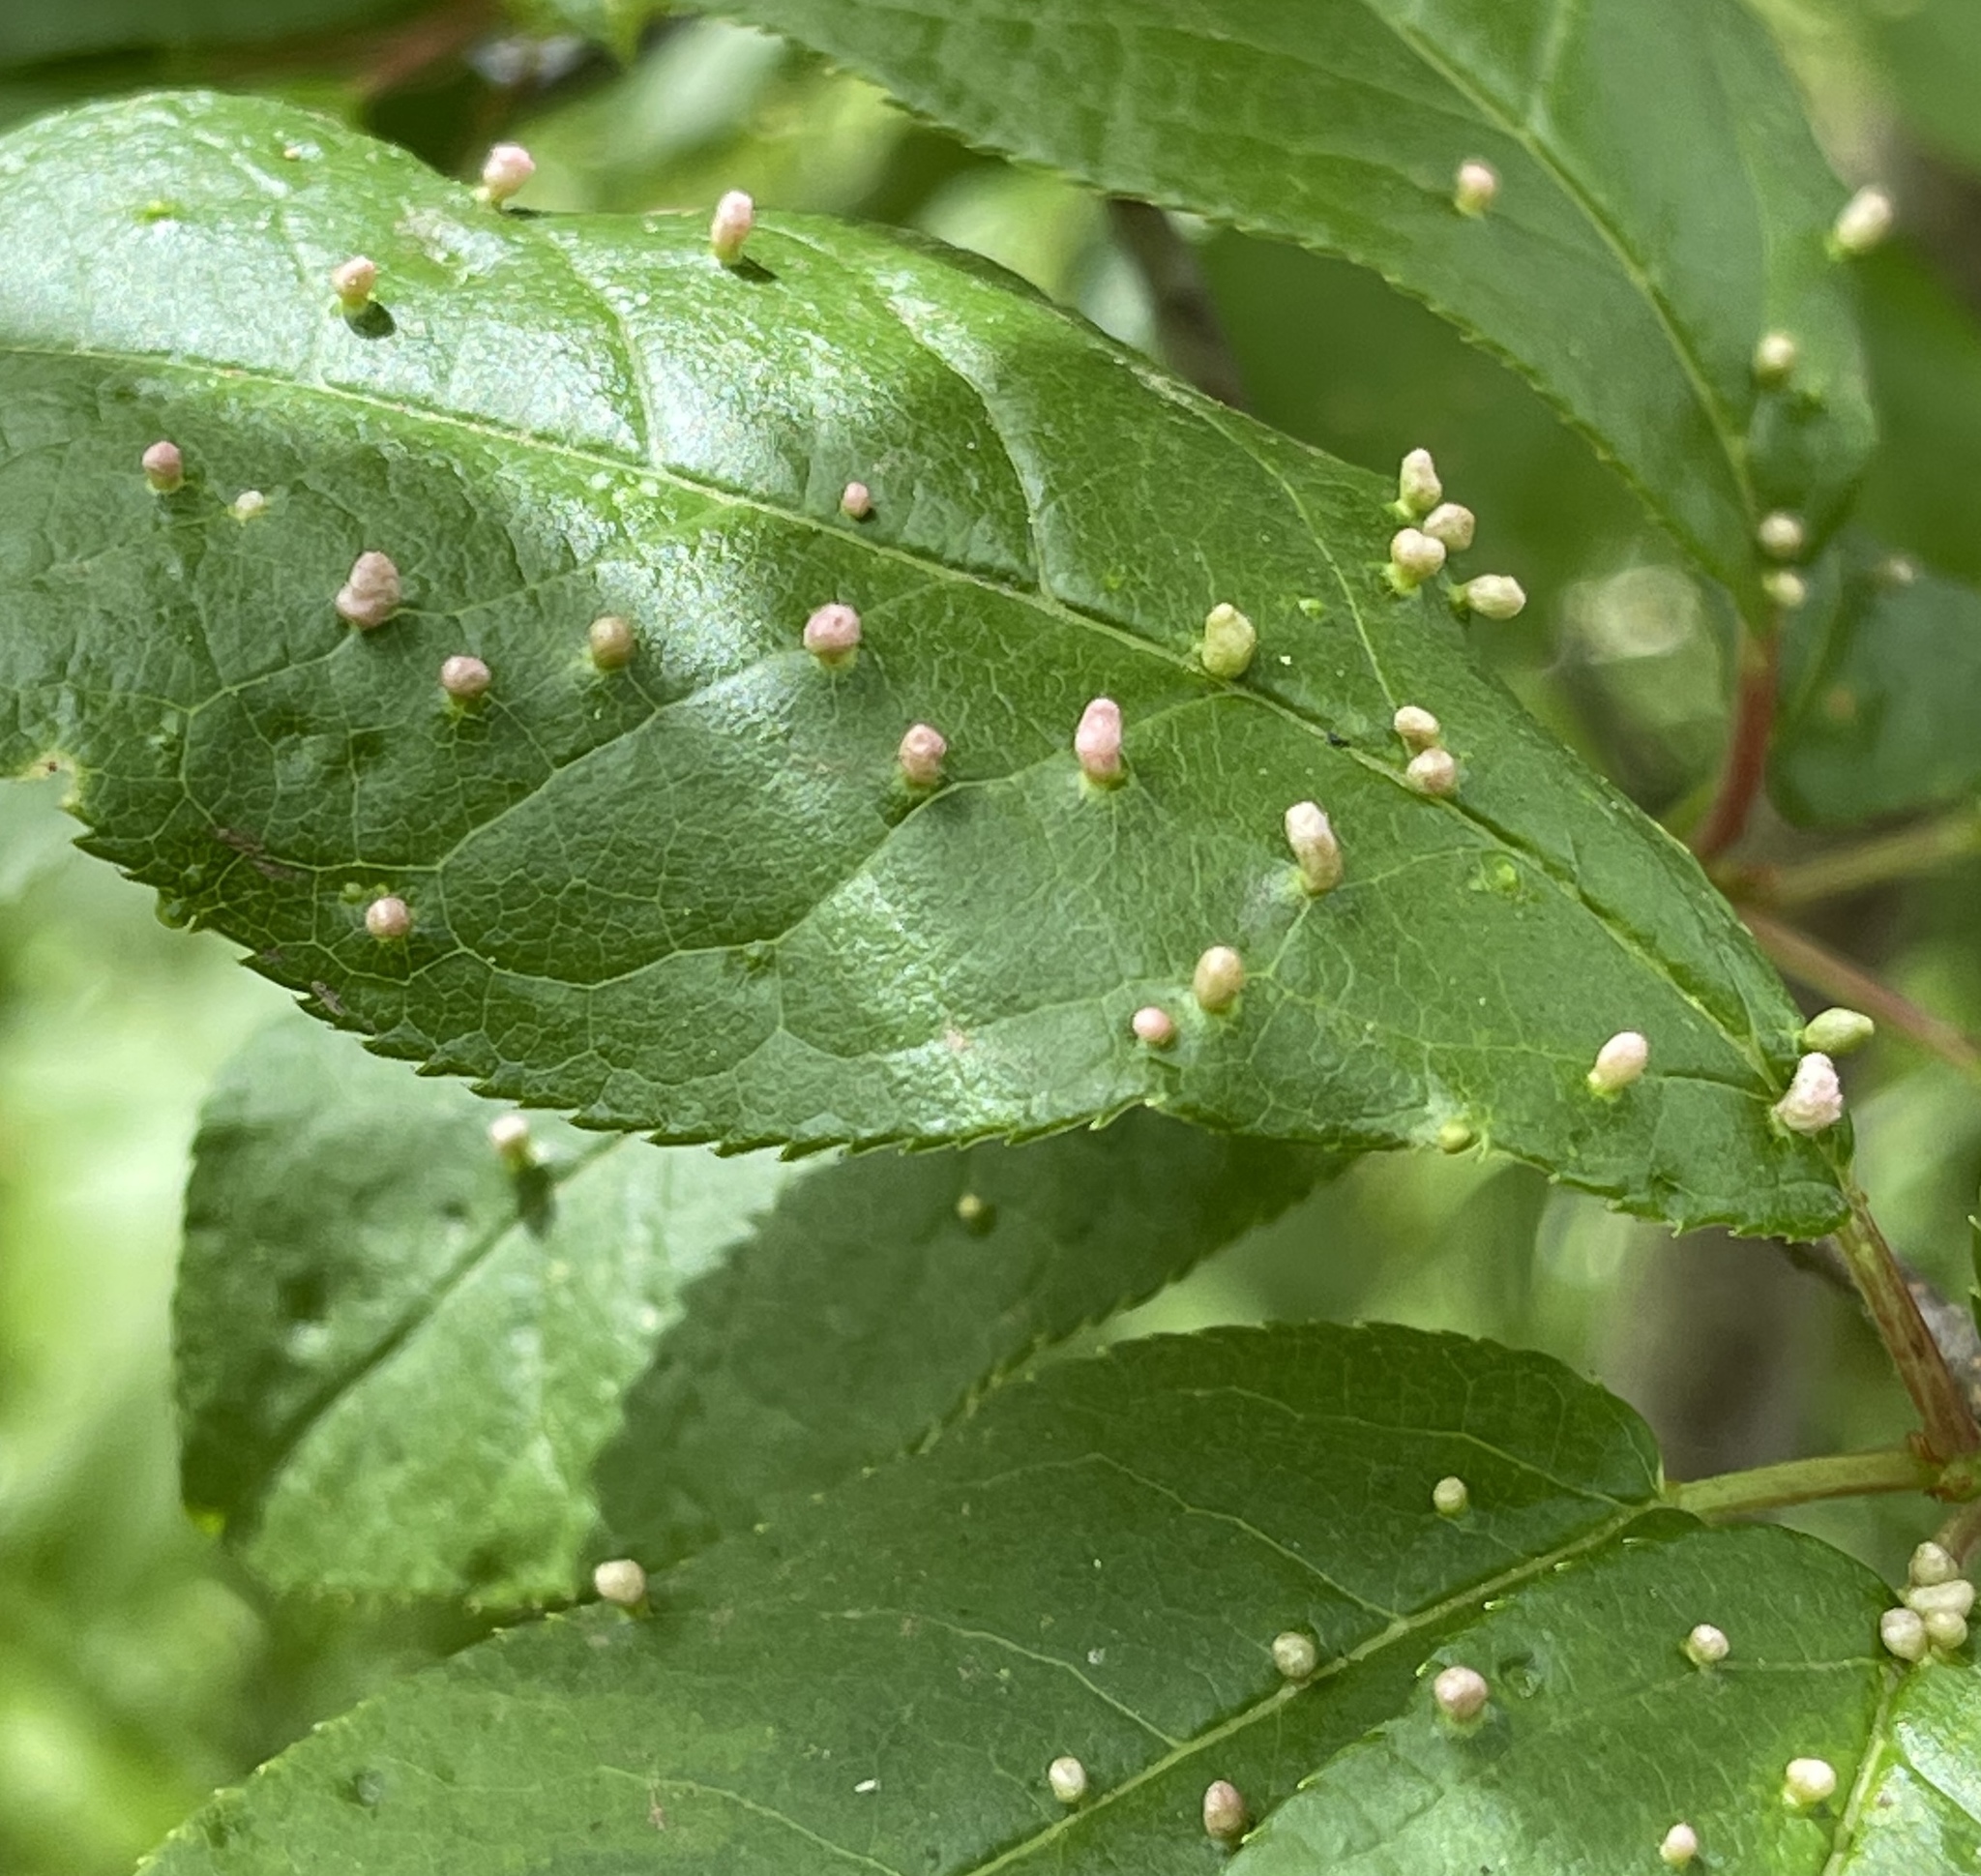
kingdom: Animalia
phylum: Arthropoda
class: Arachnida
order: Trombidiformes
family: Eriophyidae
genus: Eriophyes
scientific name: Eriophyes emarginatae
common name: Plum leaf gall mite
